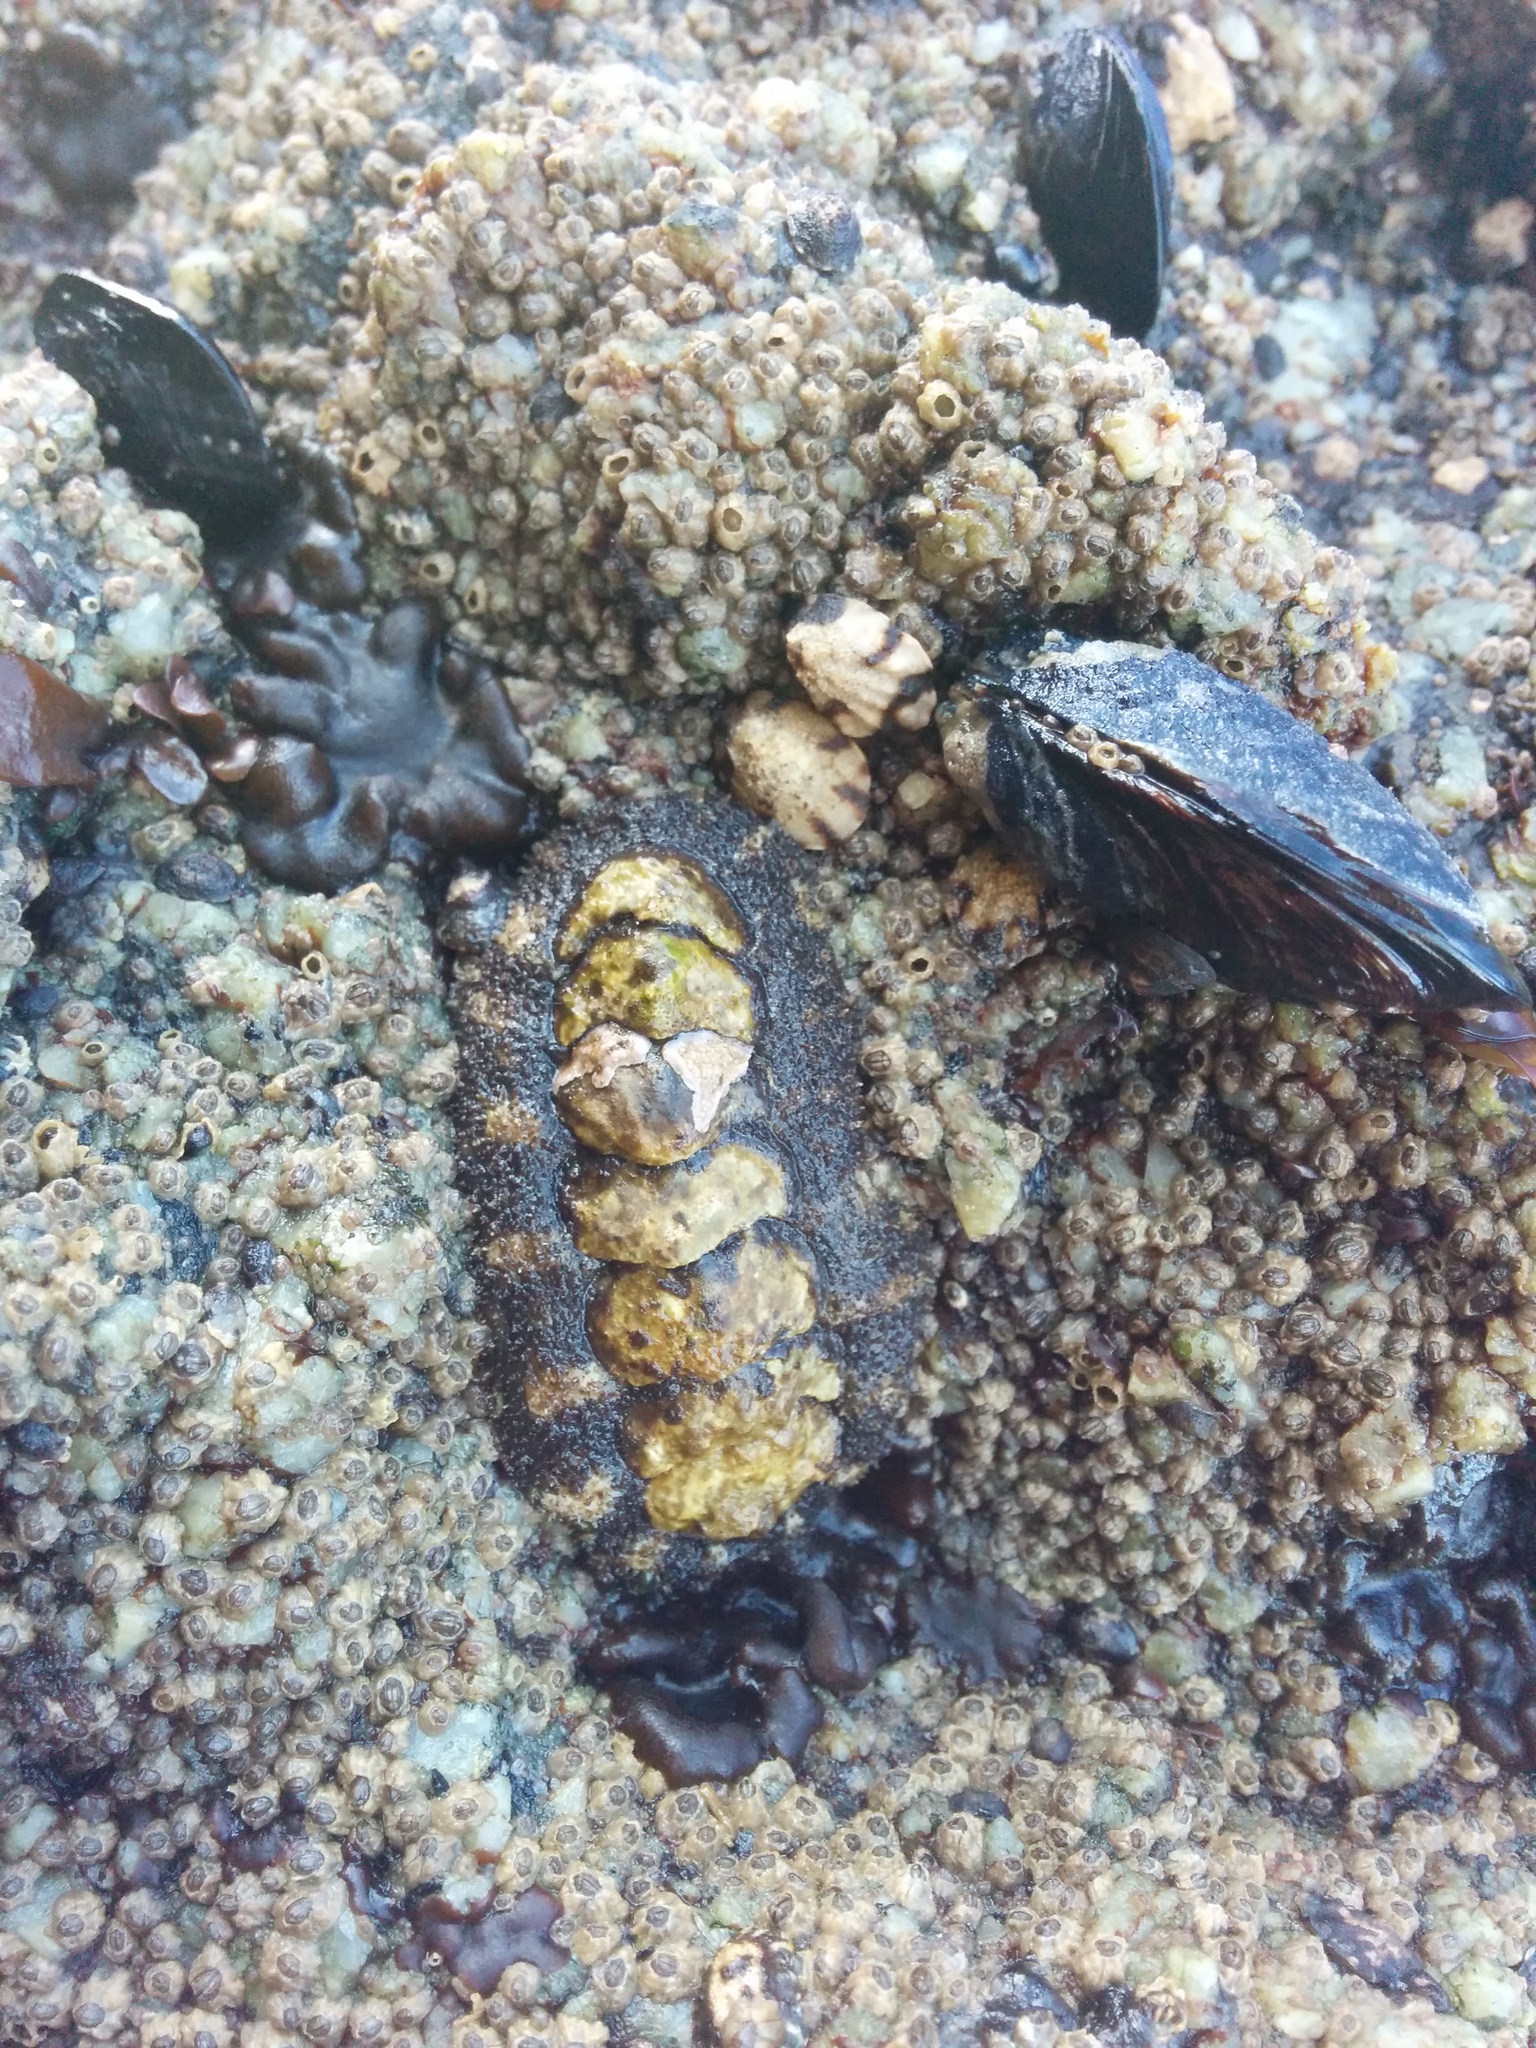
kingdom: Animalia
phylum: Mollusca
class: Polyplacophora
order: Chitonida
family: Tonicellidae
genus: Nuttallina
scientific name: Nuttallina californica
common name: California nuttall chiton
